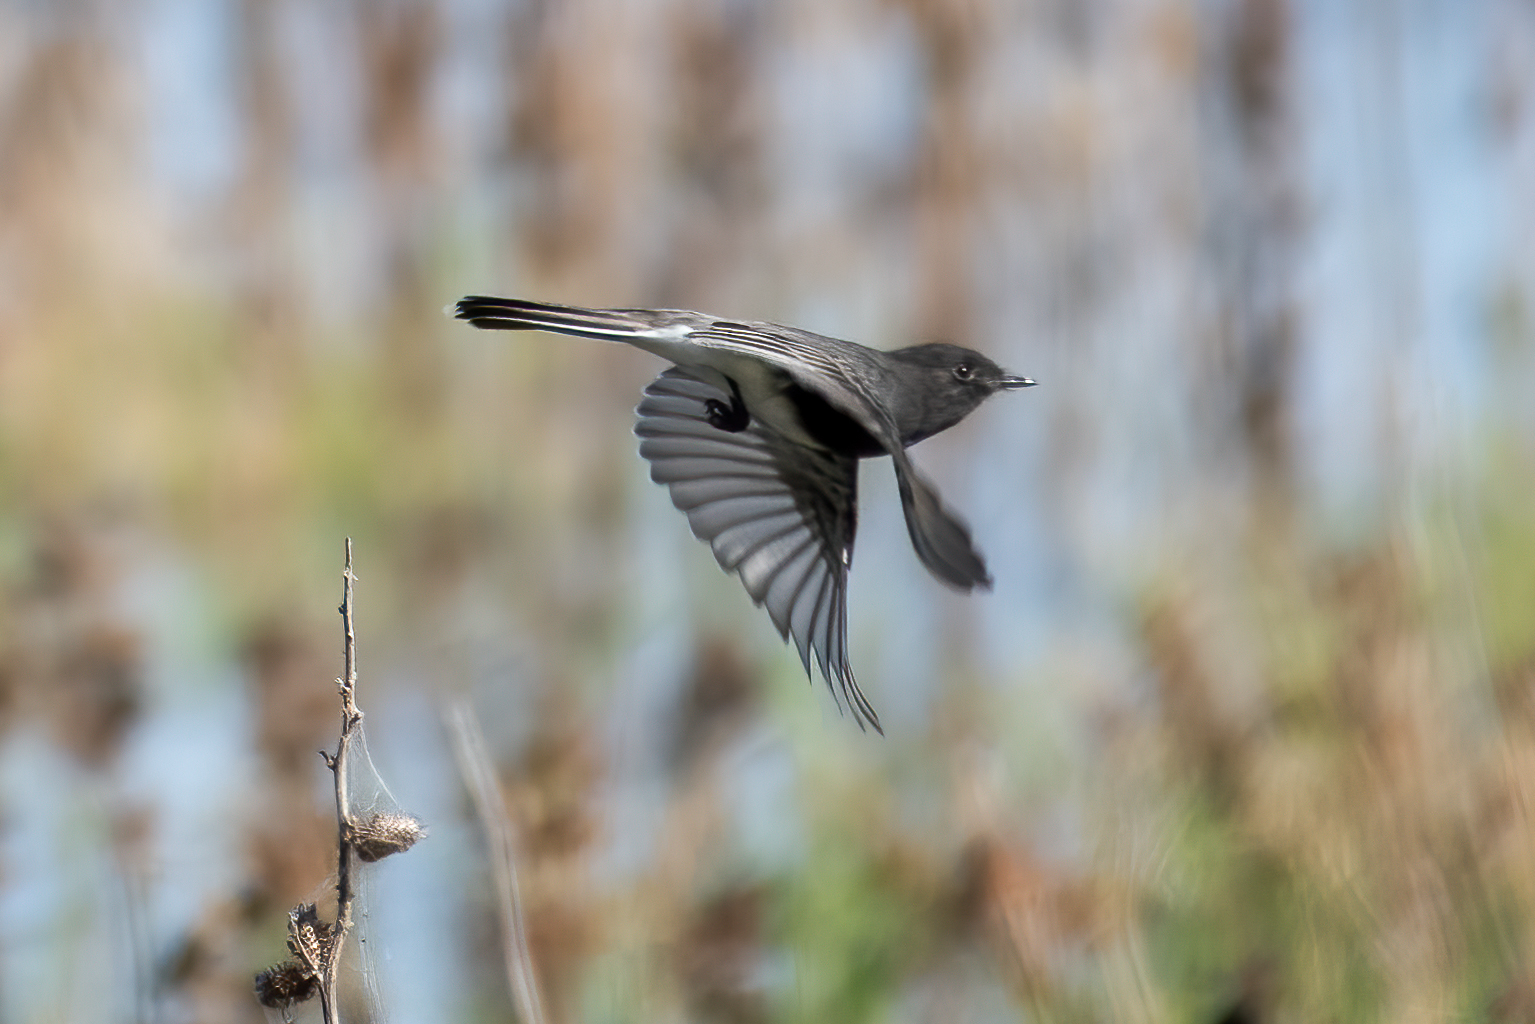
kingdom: Animalia
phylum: Chordata
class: Aves
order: Passeriformes
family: Tyrannidae
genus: Sayornis
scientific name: Sayornis nigricans
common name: Black phoebe
